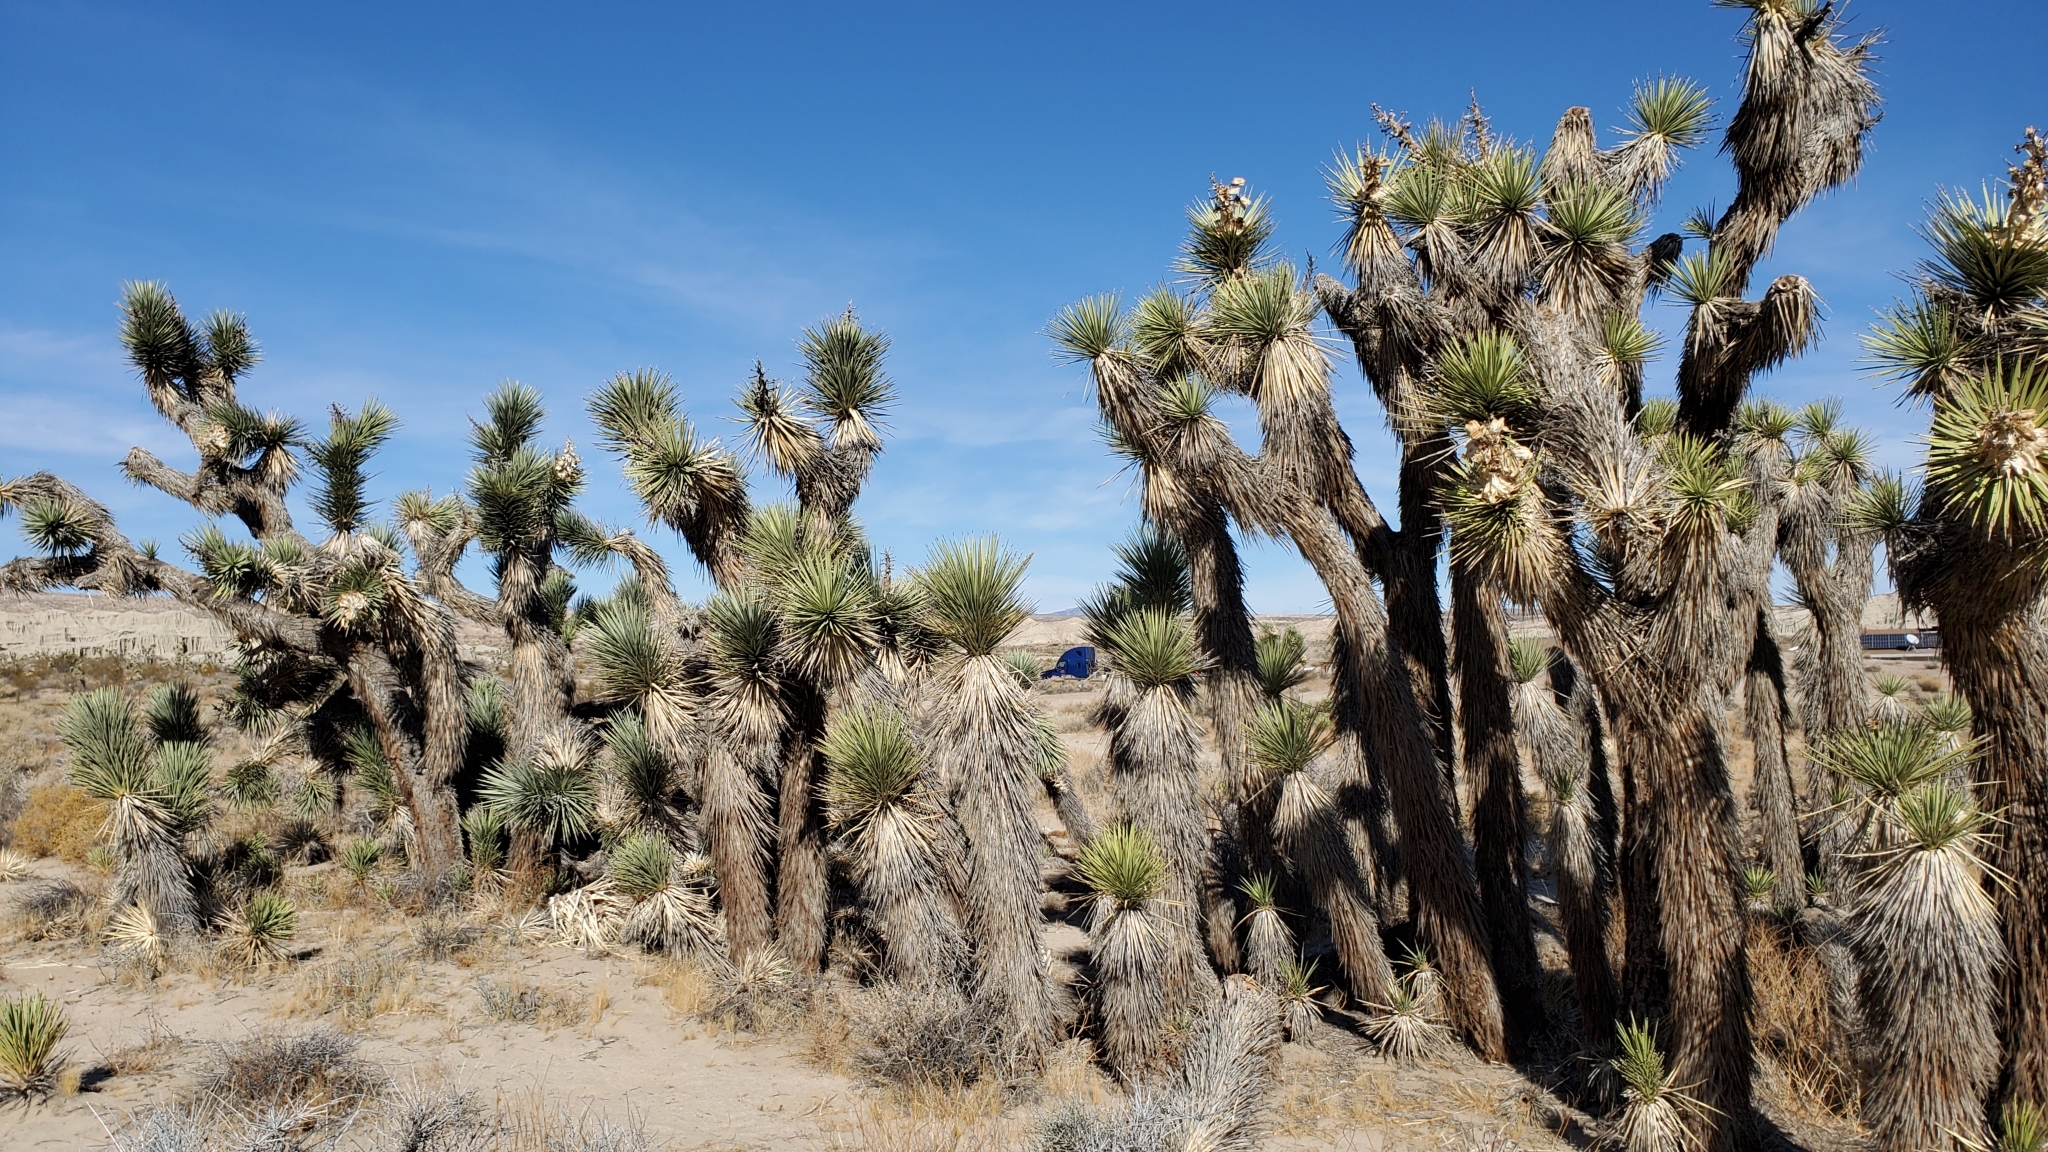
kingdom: Plantae
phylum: Tracheophyta
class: Liliopsida
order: Asparagales
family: Asparagaceae
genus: Yucca
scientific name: Yucca brevifolia
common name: Joshua tree
